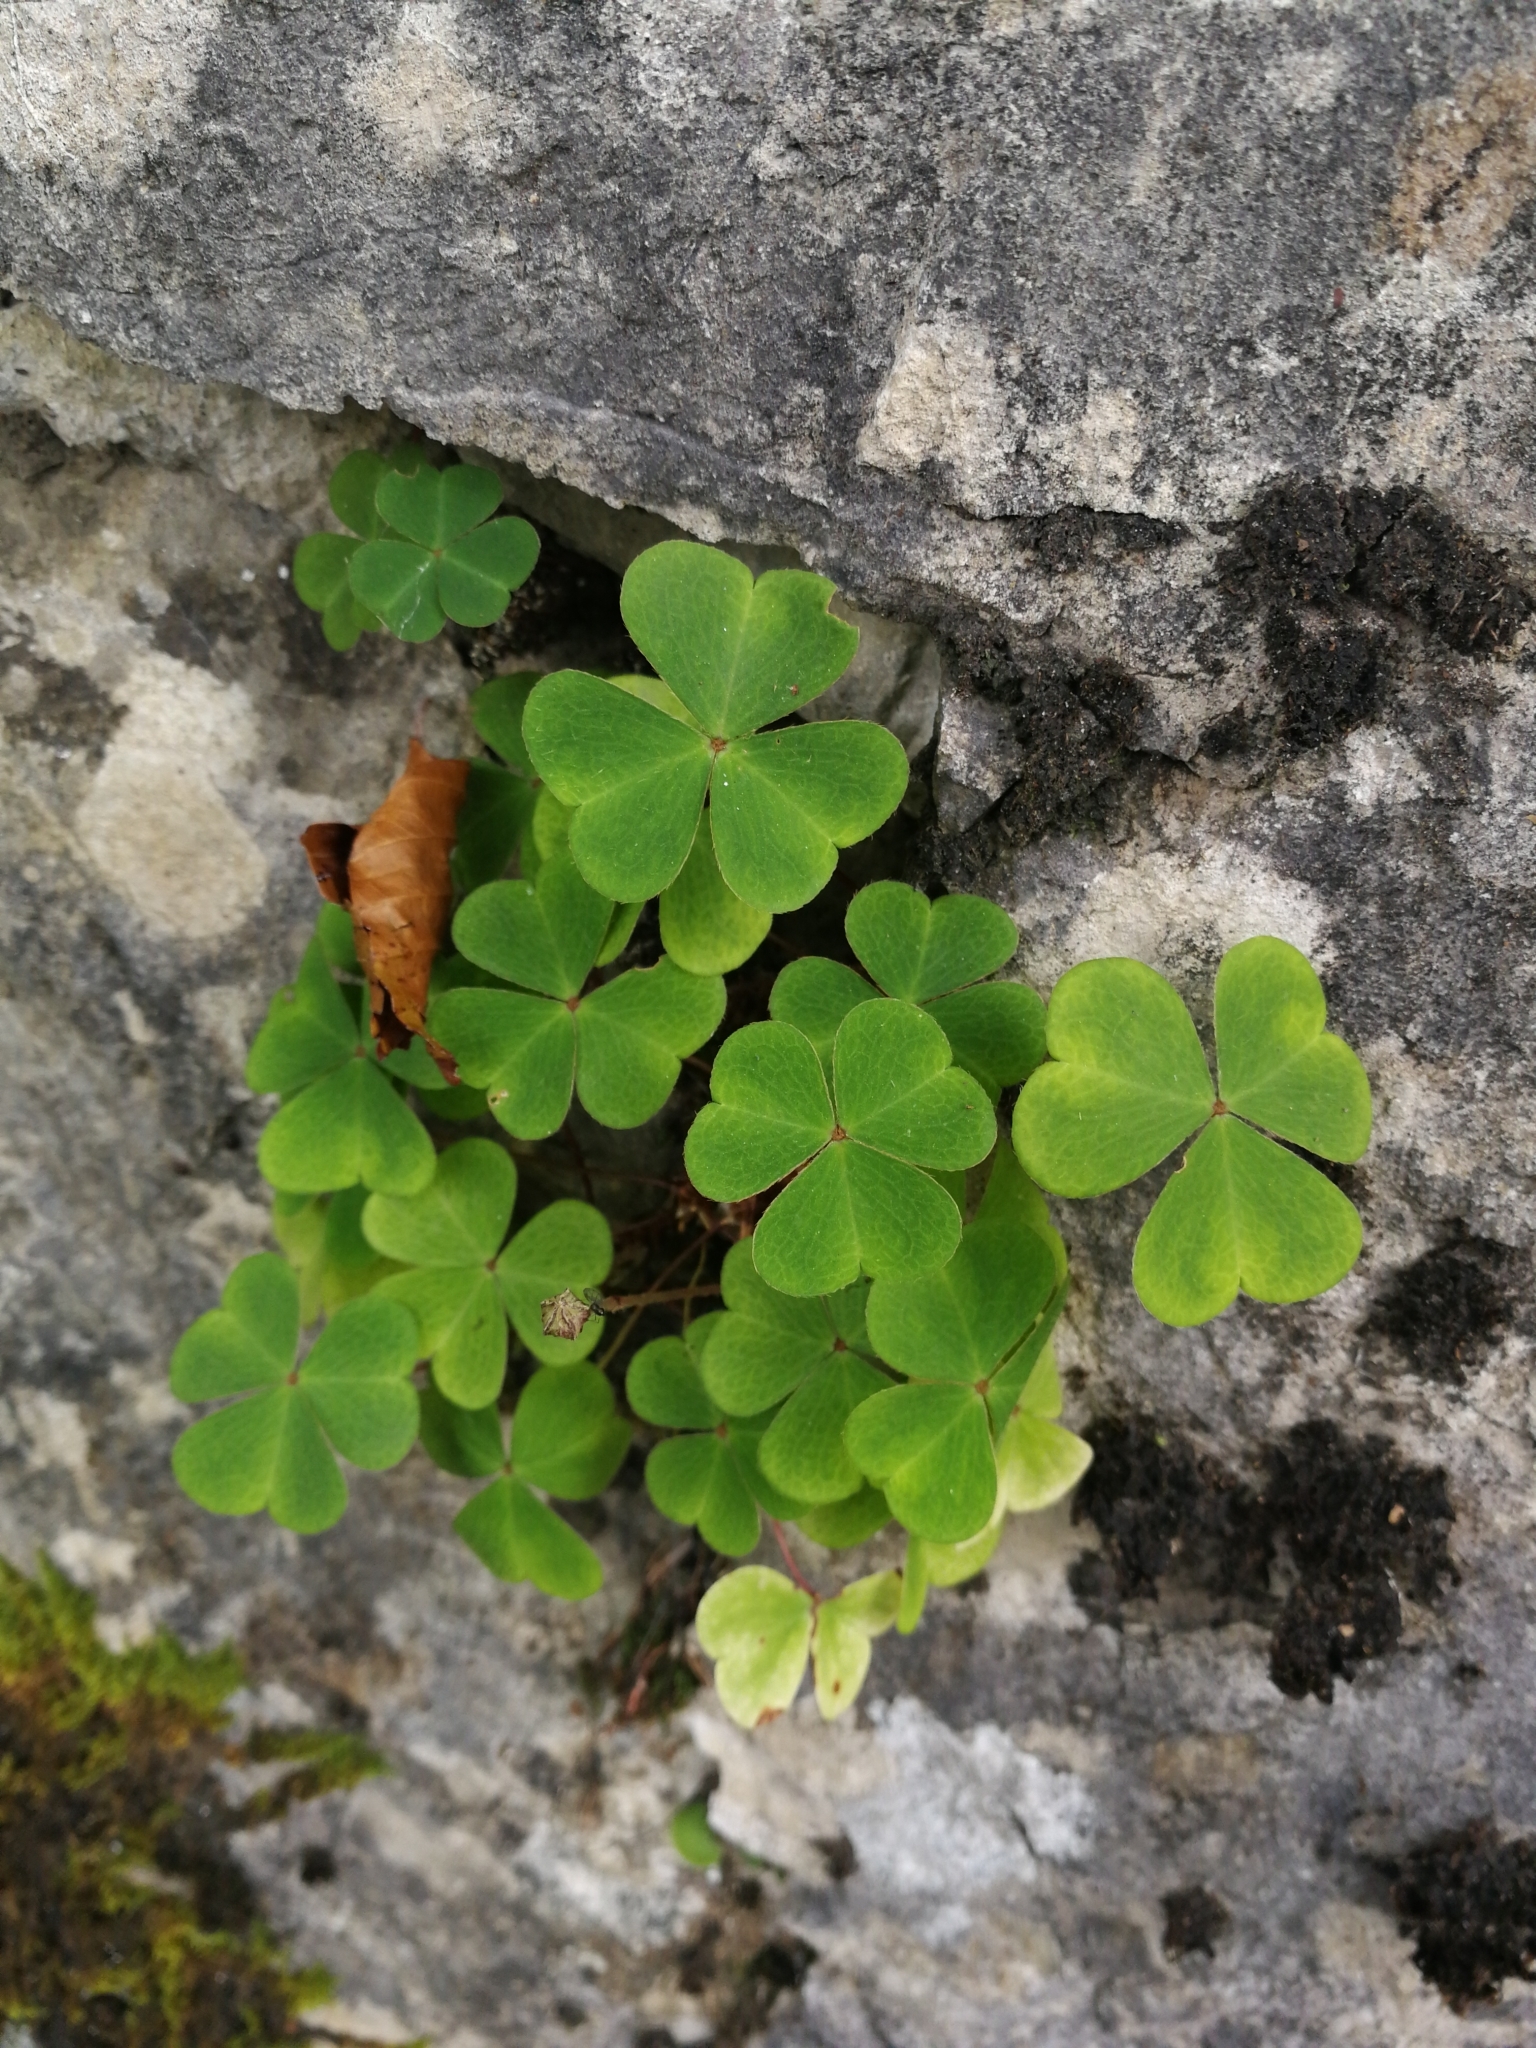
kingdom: Plantae
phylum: Tracheophyta
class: Magnoliopsida
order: Oxalidales
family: Oxalidaceae
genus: Oxalis
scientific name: Oxalis acetosella
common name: Wood-sorrel
